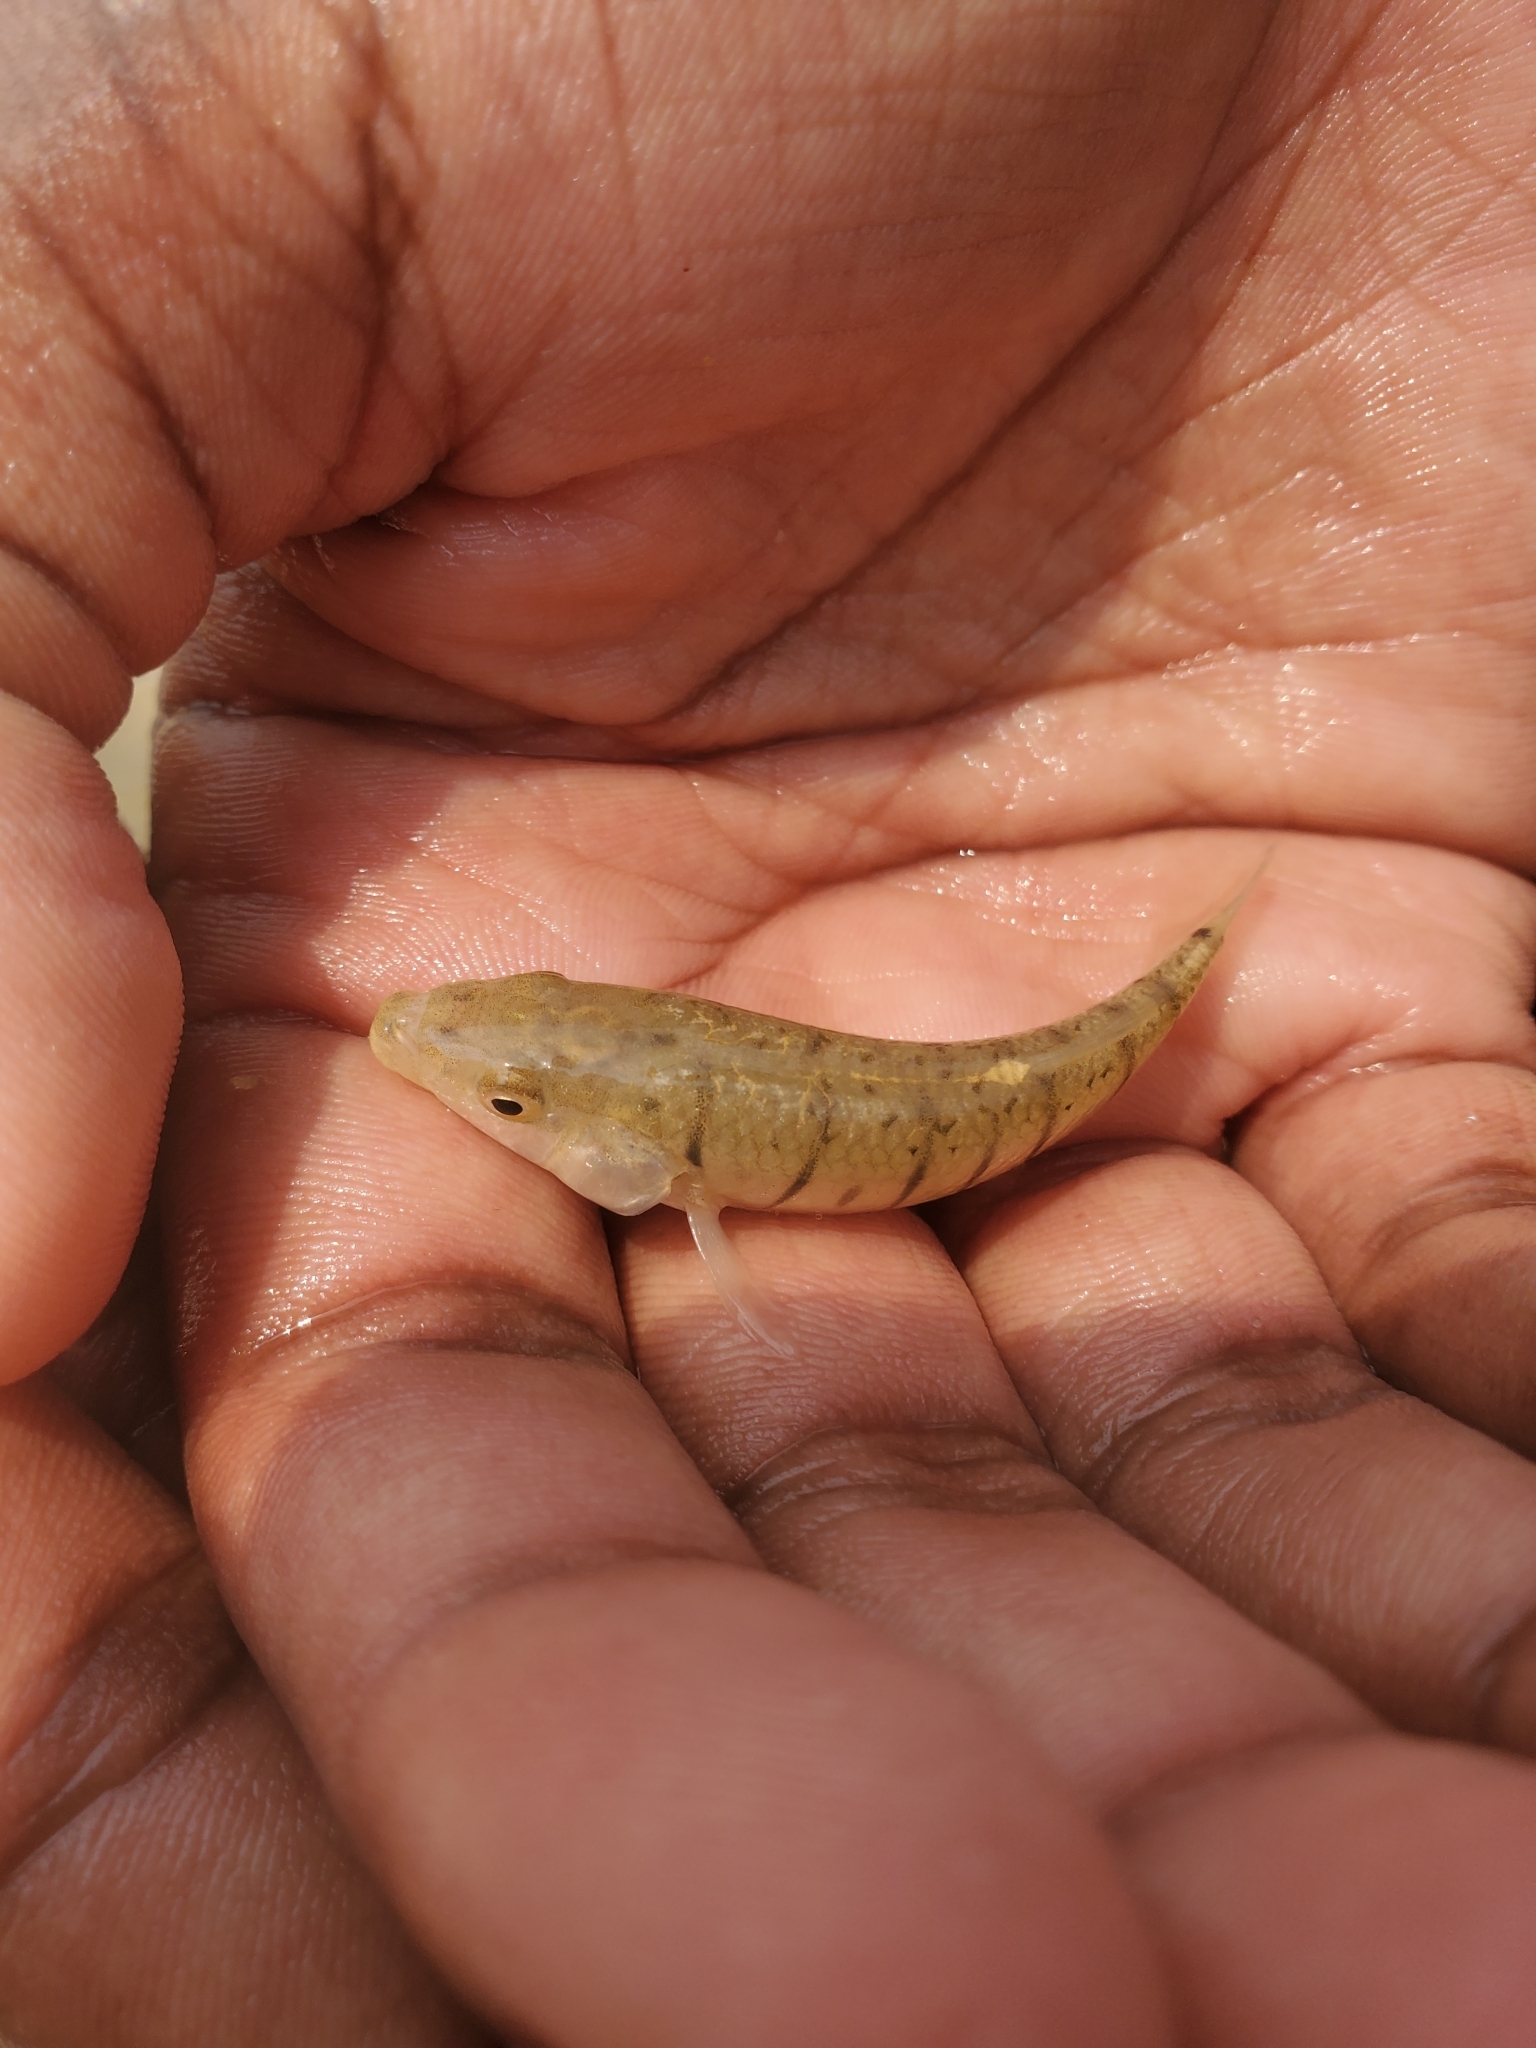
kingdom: Animalia
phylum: Chordata
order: Cyprinodontiformes
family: Fundulidae
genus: Fundulus
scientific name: Fundulus majalis
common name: Striped killifish
